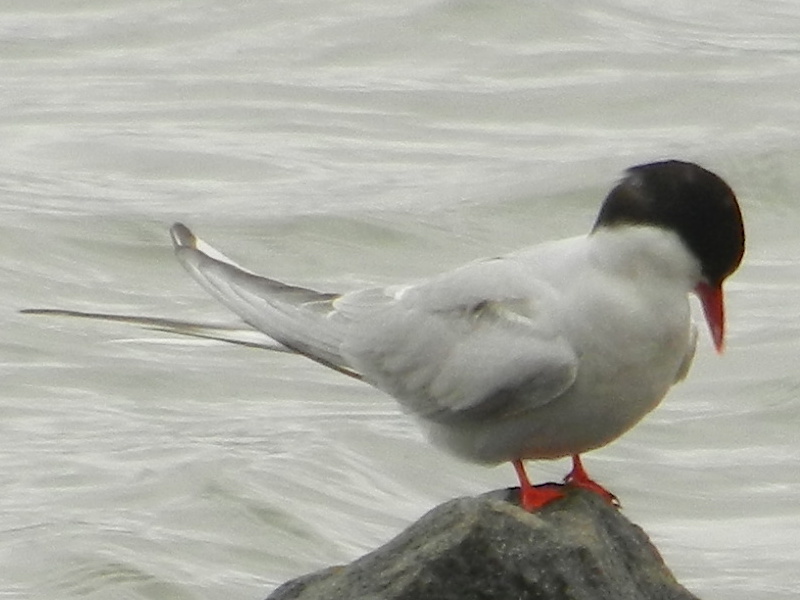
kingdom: Animalia
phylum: Chordata
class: Aves
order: Charadriiformes
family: Laridae
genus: Sterna
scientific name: Sterna paradisaea
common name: Arctic tern
